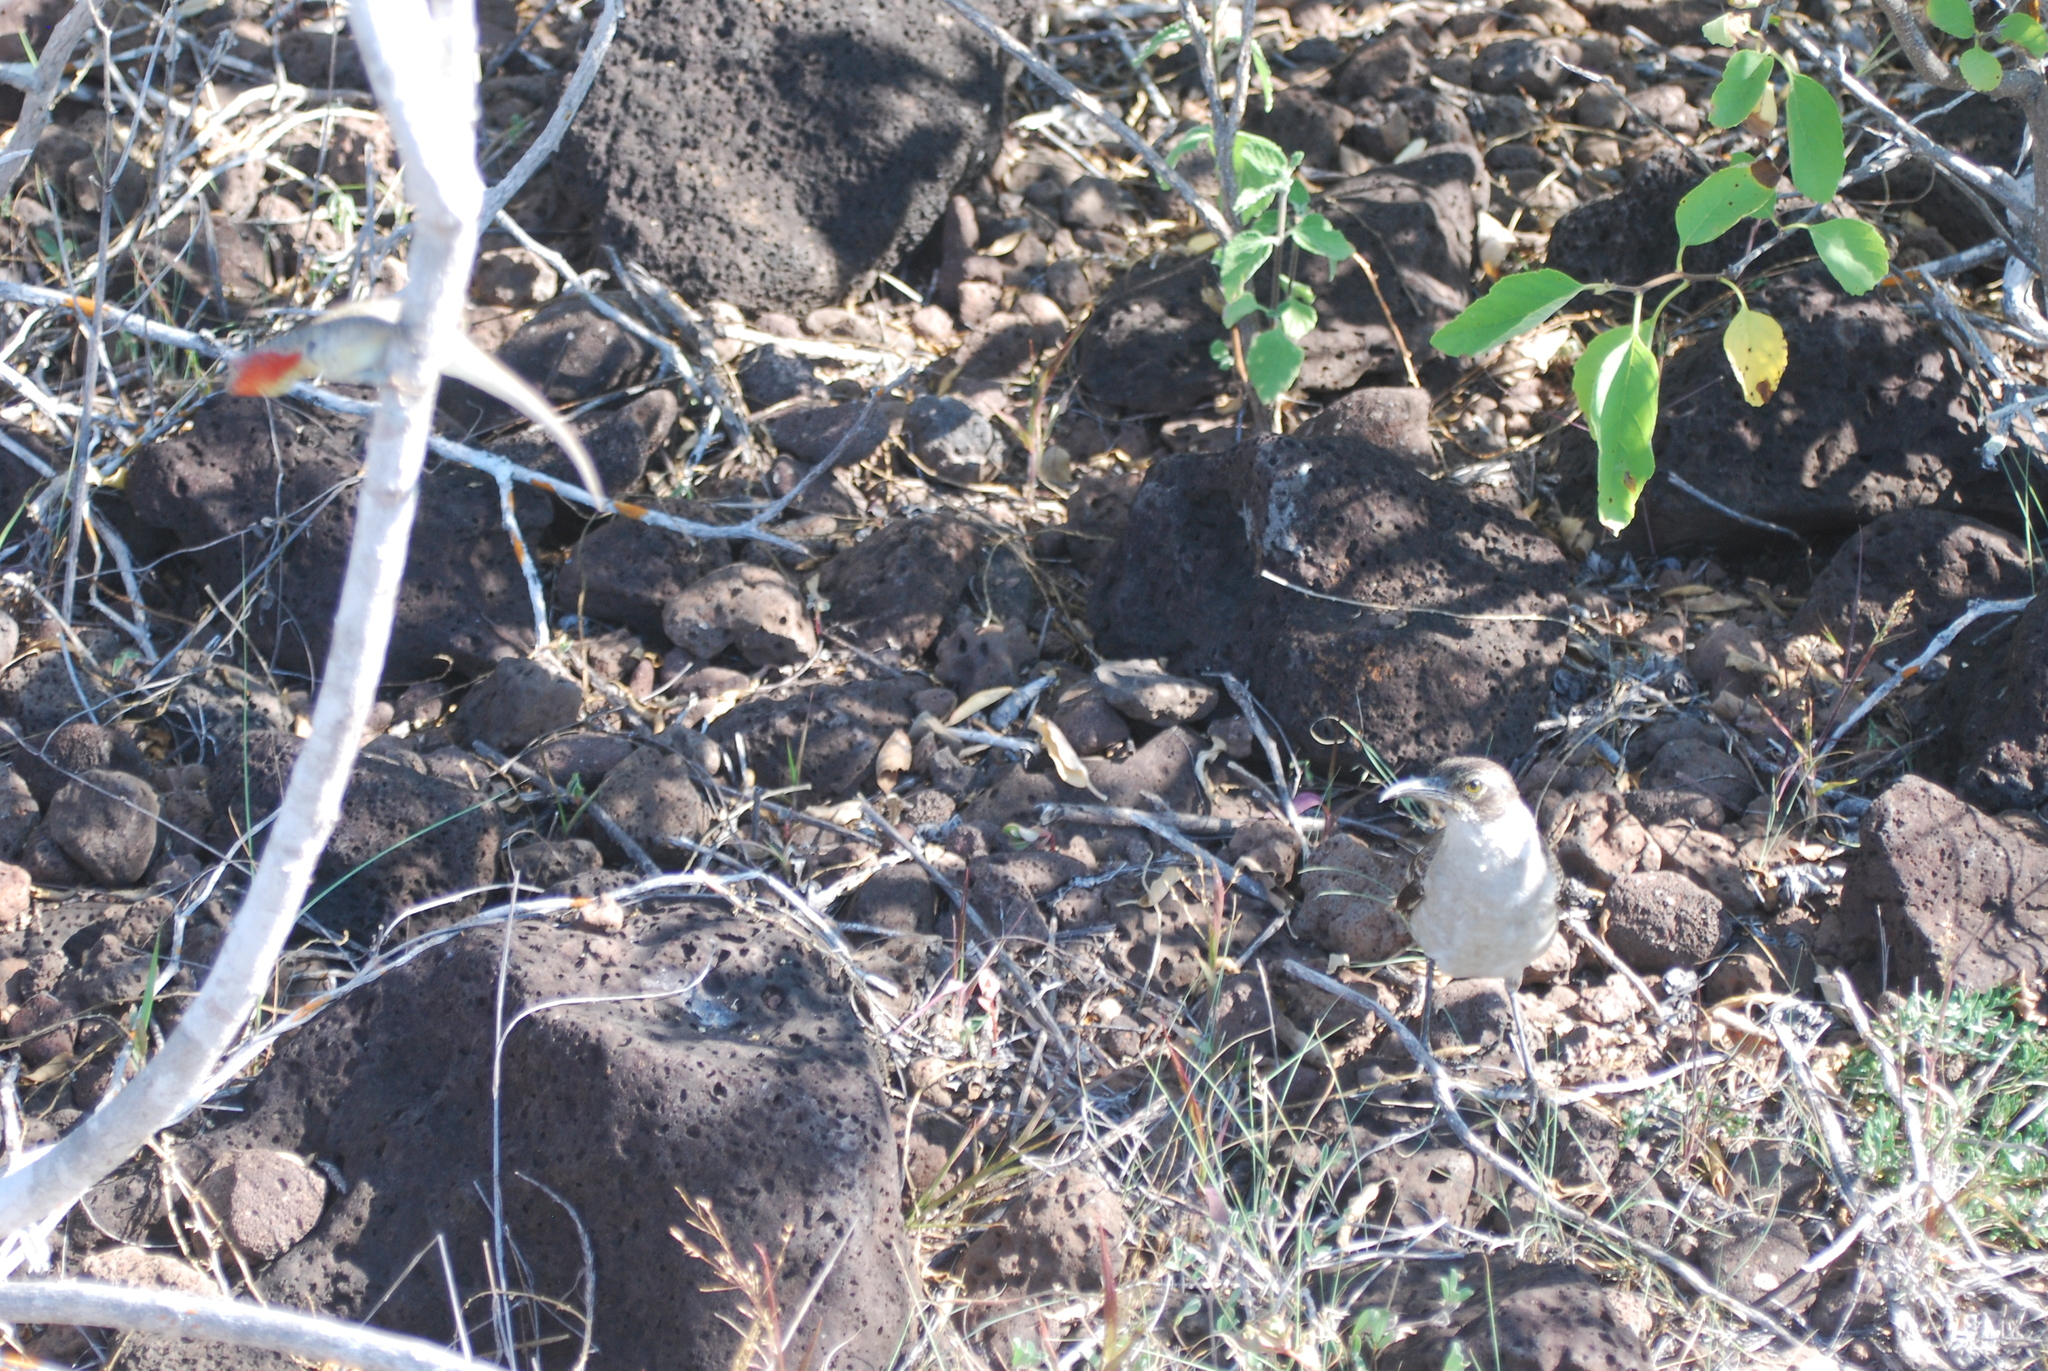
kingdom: Animalia
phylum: Chordata
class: Aves
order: Passeriformes
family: Mimidae
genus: Mimus
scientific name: Mimus parvulus
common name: Galapagos mockingbird
